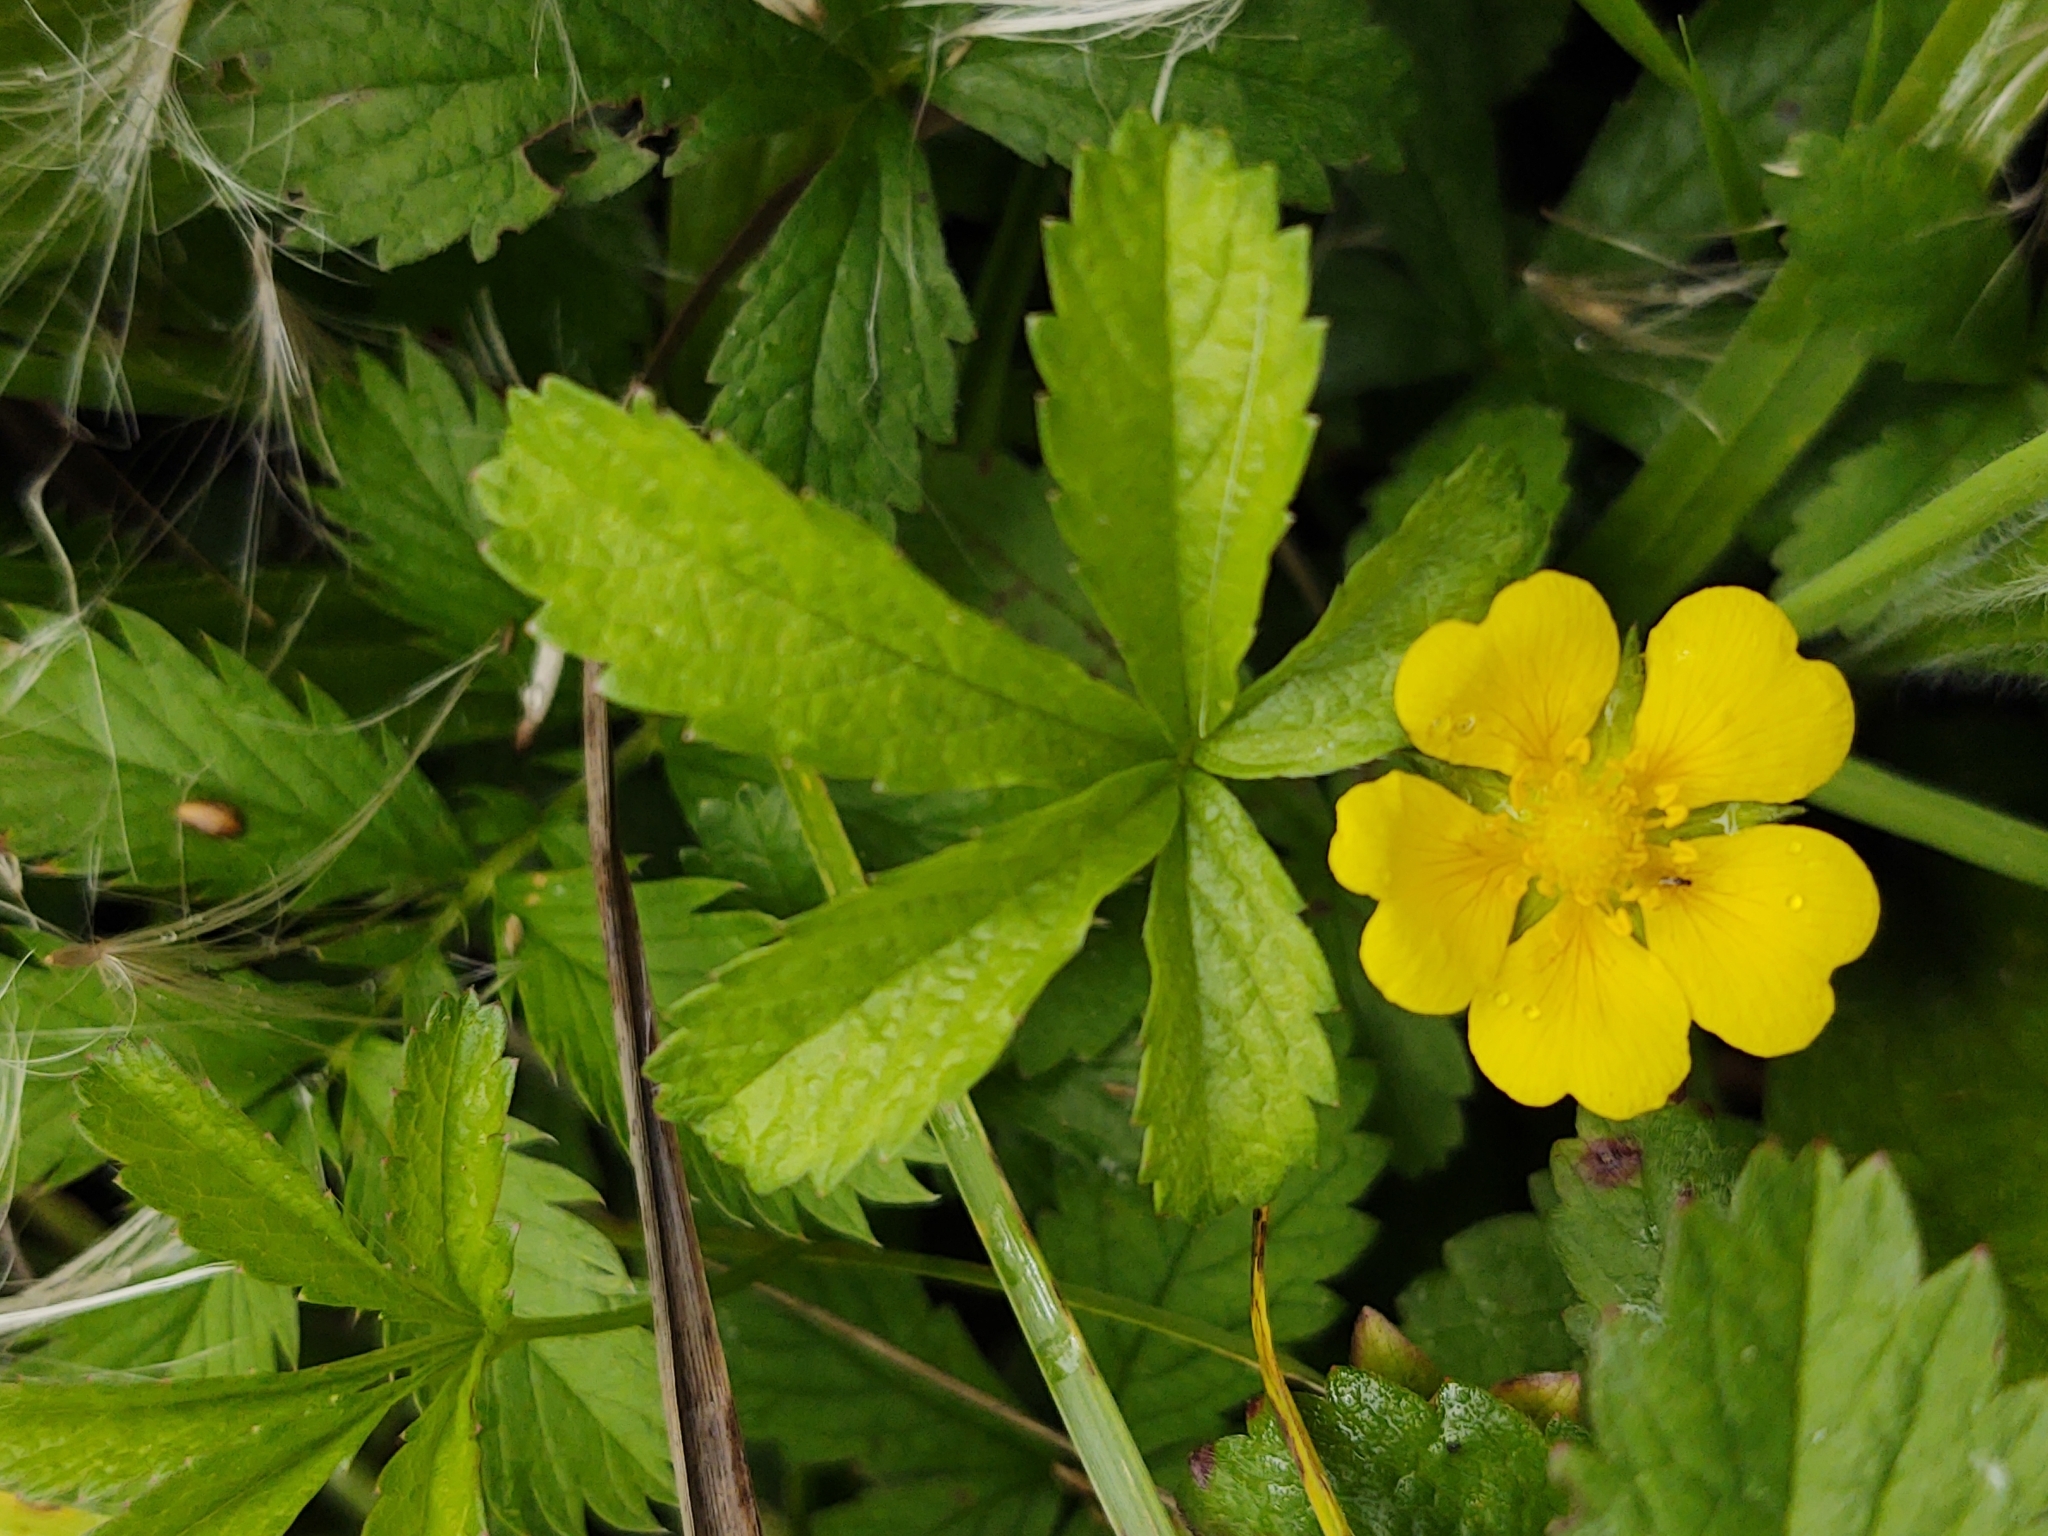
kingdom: Plantae
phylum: Tracheophyta
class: Magnoliopsida
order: Rosales
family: Rosaceae
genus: Potentilla
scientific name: Potentilla reptans
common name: Creeping cinquefoil
